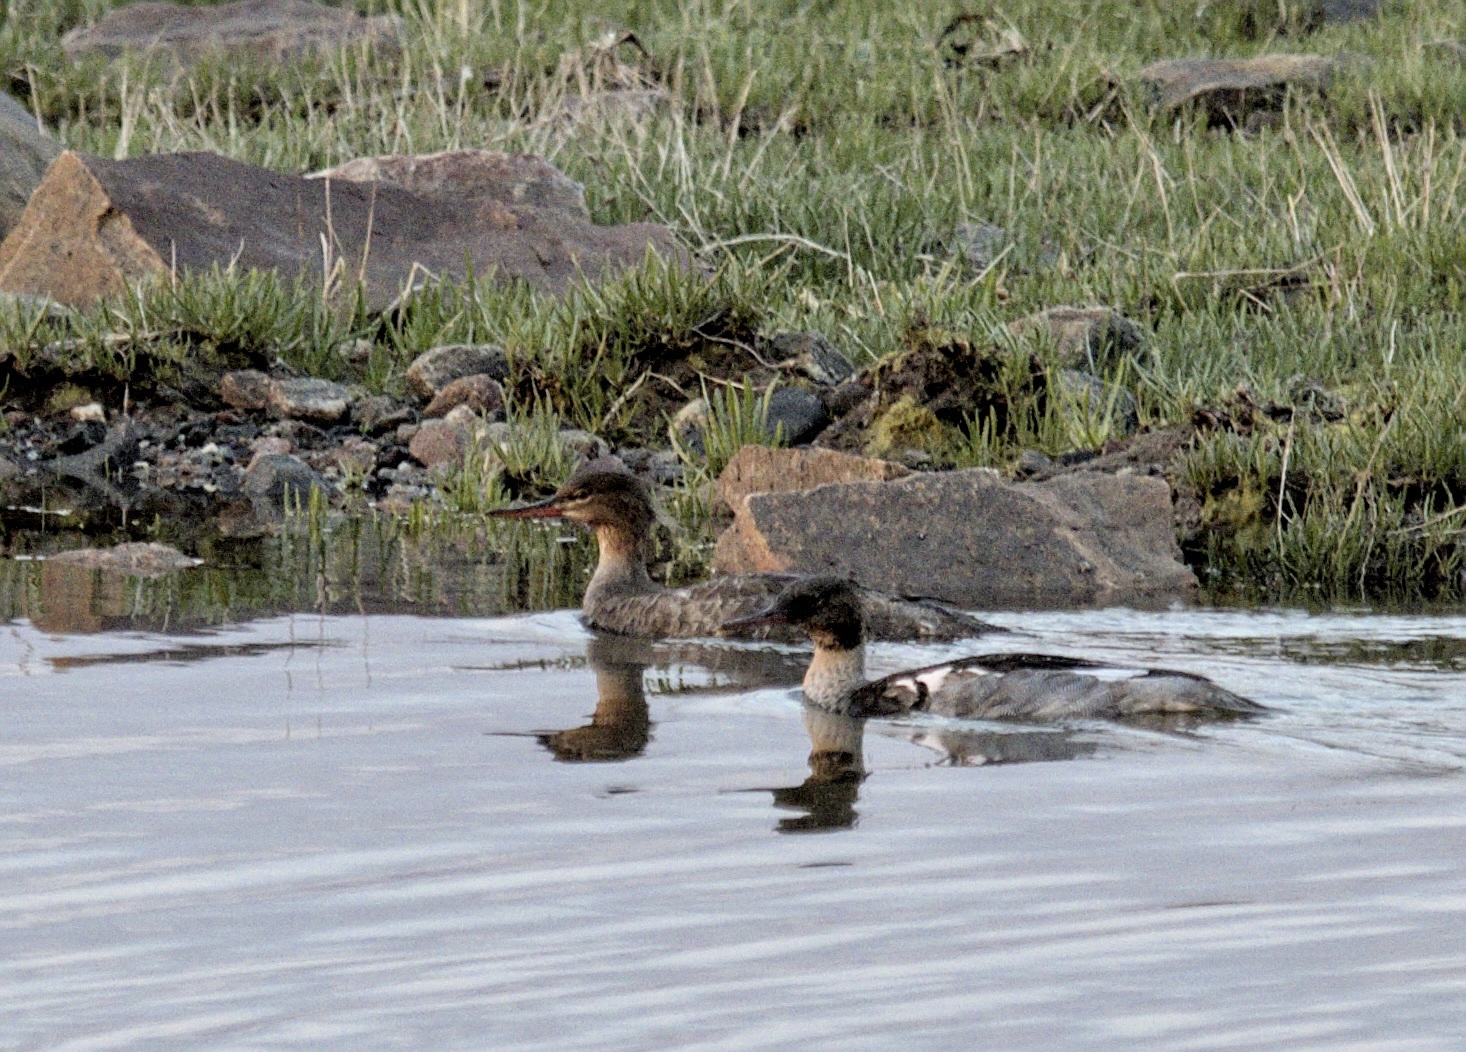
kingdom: Animalia
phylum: Chordata
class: Aves
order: Anseriformes
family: Anatidae
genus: Mergus
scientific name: Mergus serrator
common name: Red-breasted merganser
